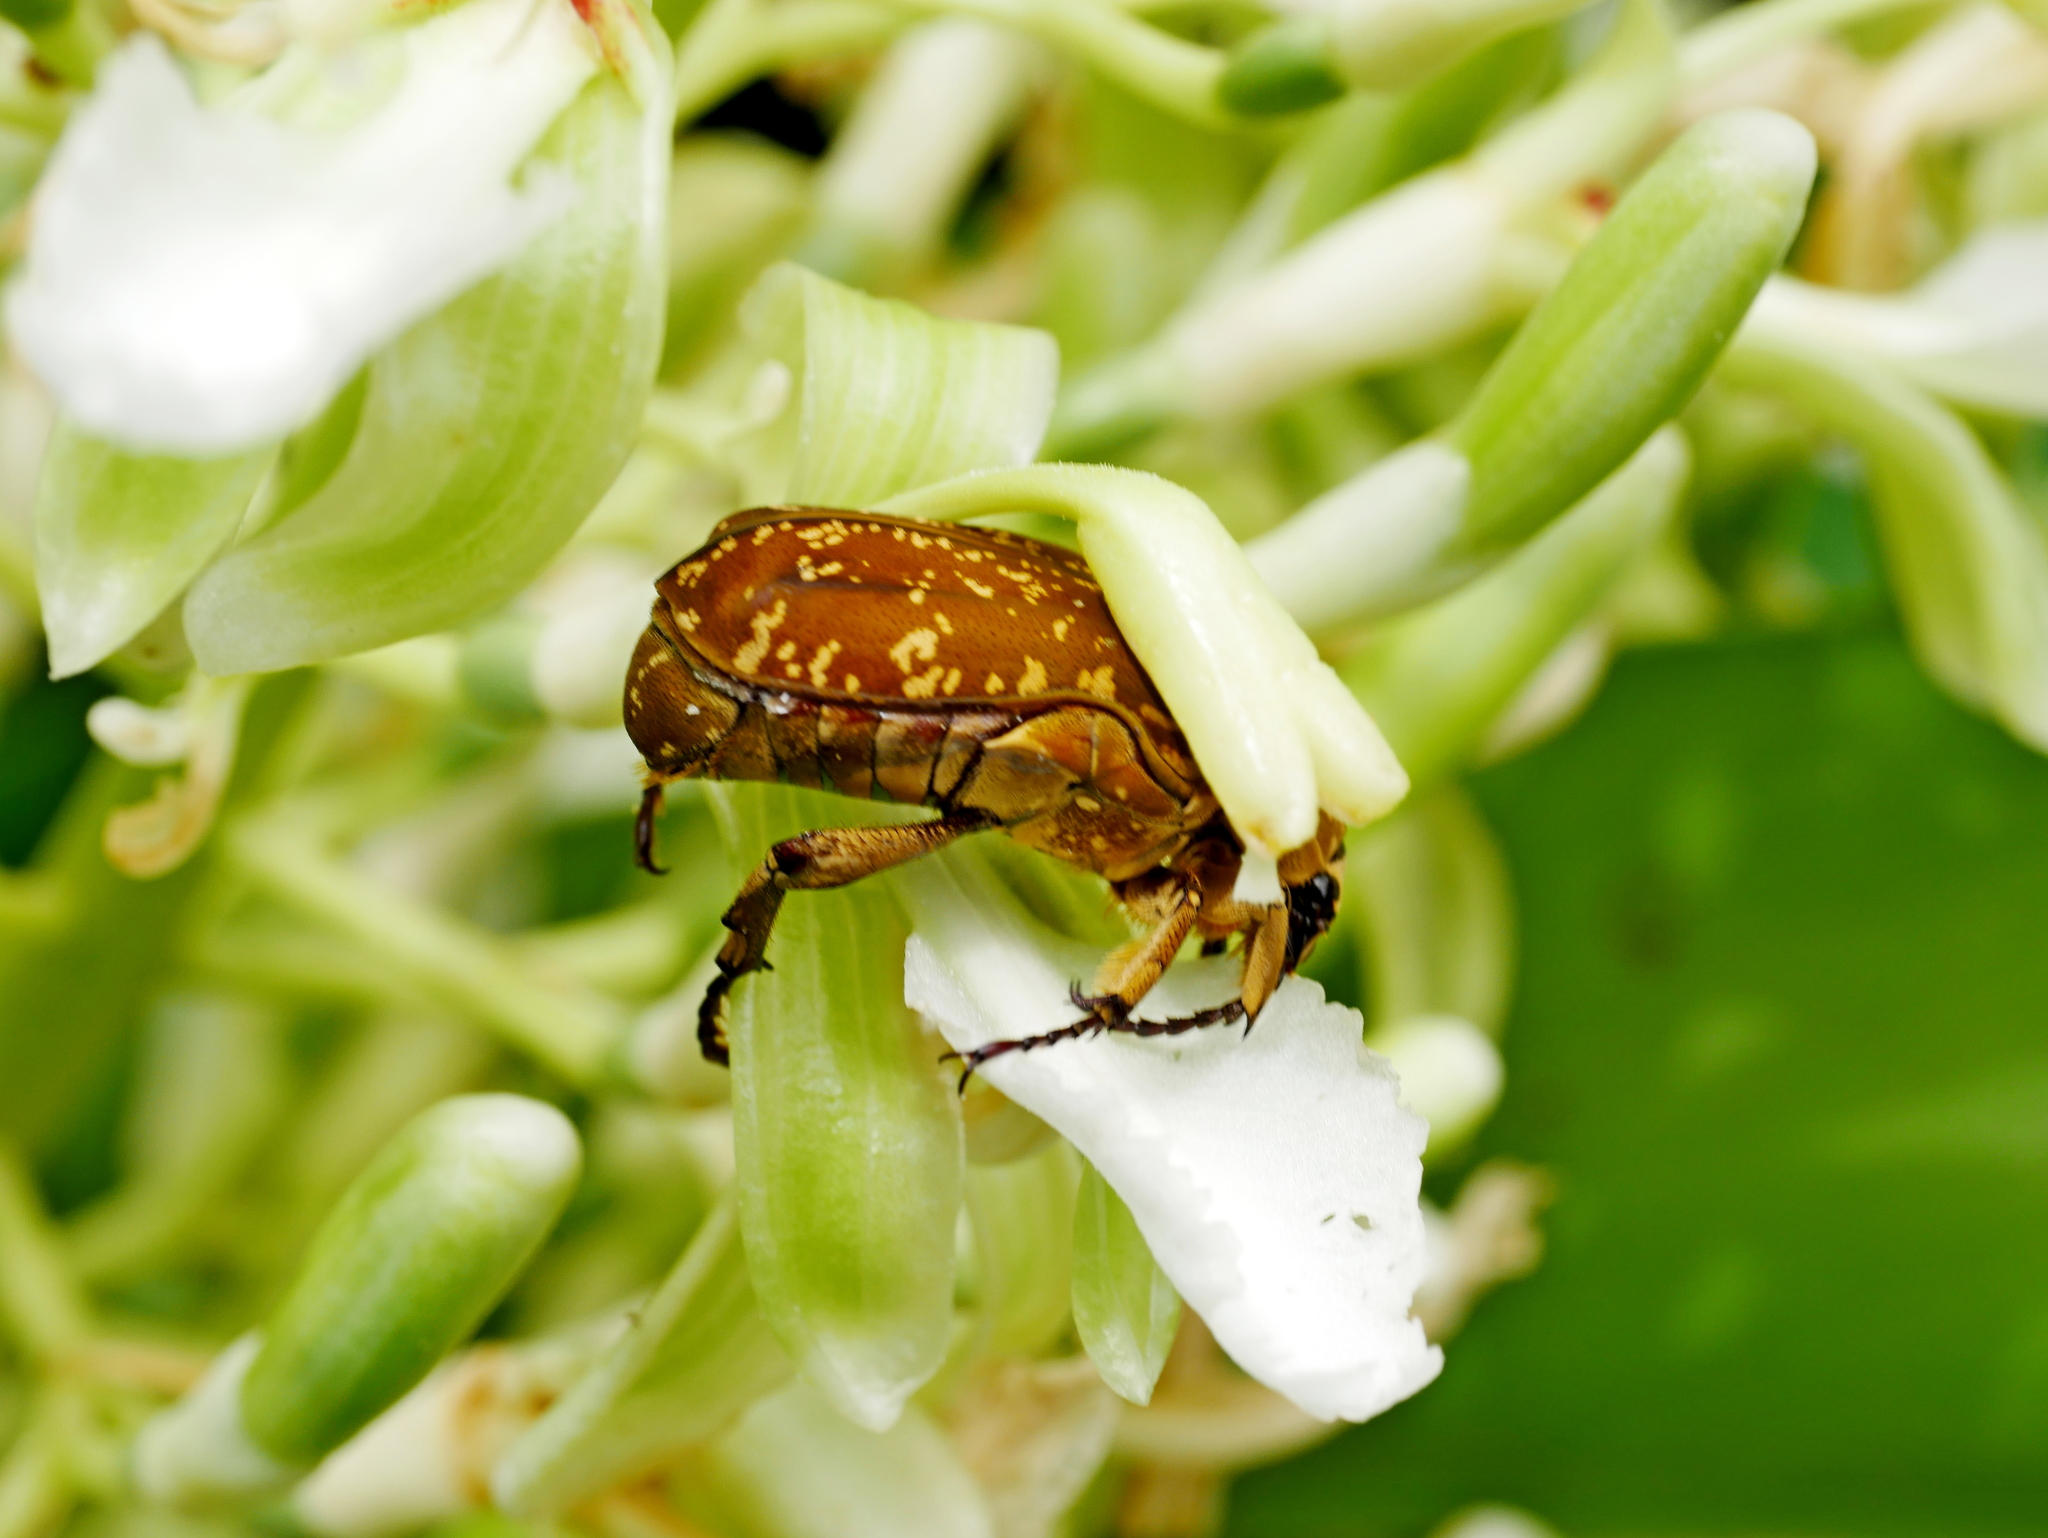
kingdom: Animalia
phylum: Arthropoda
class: Insecta
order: Coleoptera
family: Scarabaeidae
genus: Protaetia
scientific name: Protaetia culta
